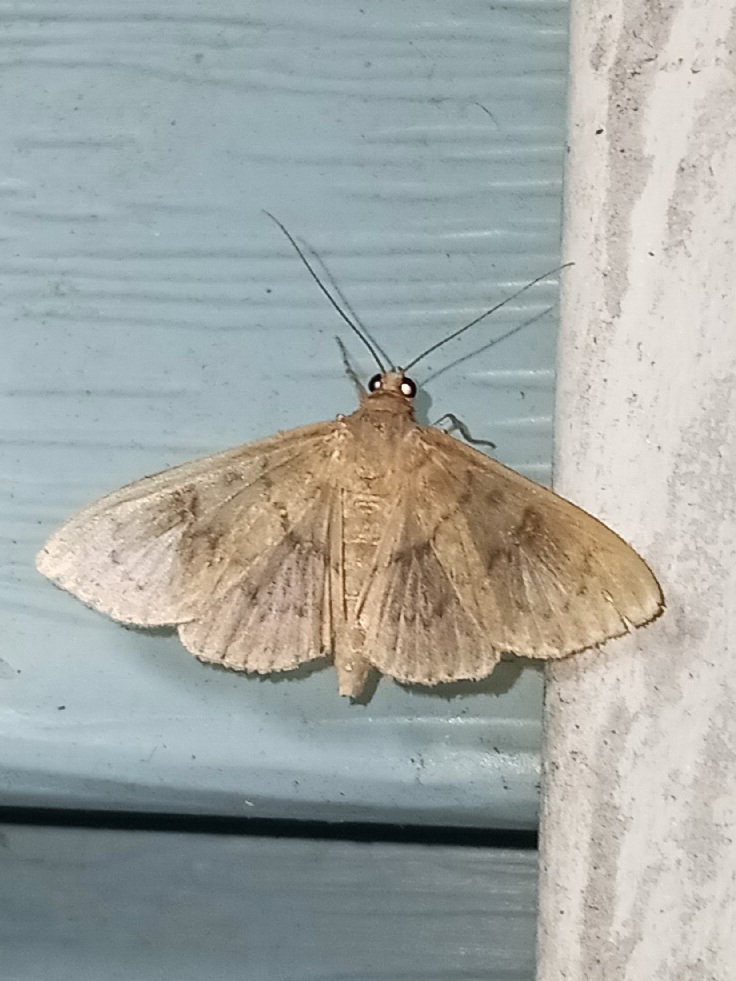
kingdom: Animalia
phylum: Arthropoda
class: Insecta
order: Lepidoptera
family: Crambidae
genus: Syllepte
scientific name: Syllepte obscuralis
